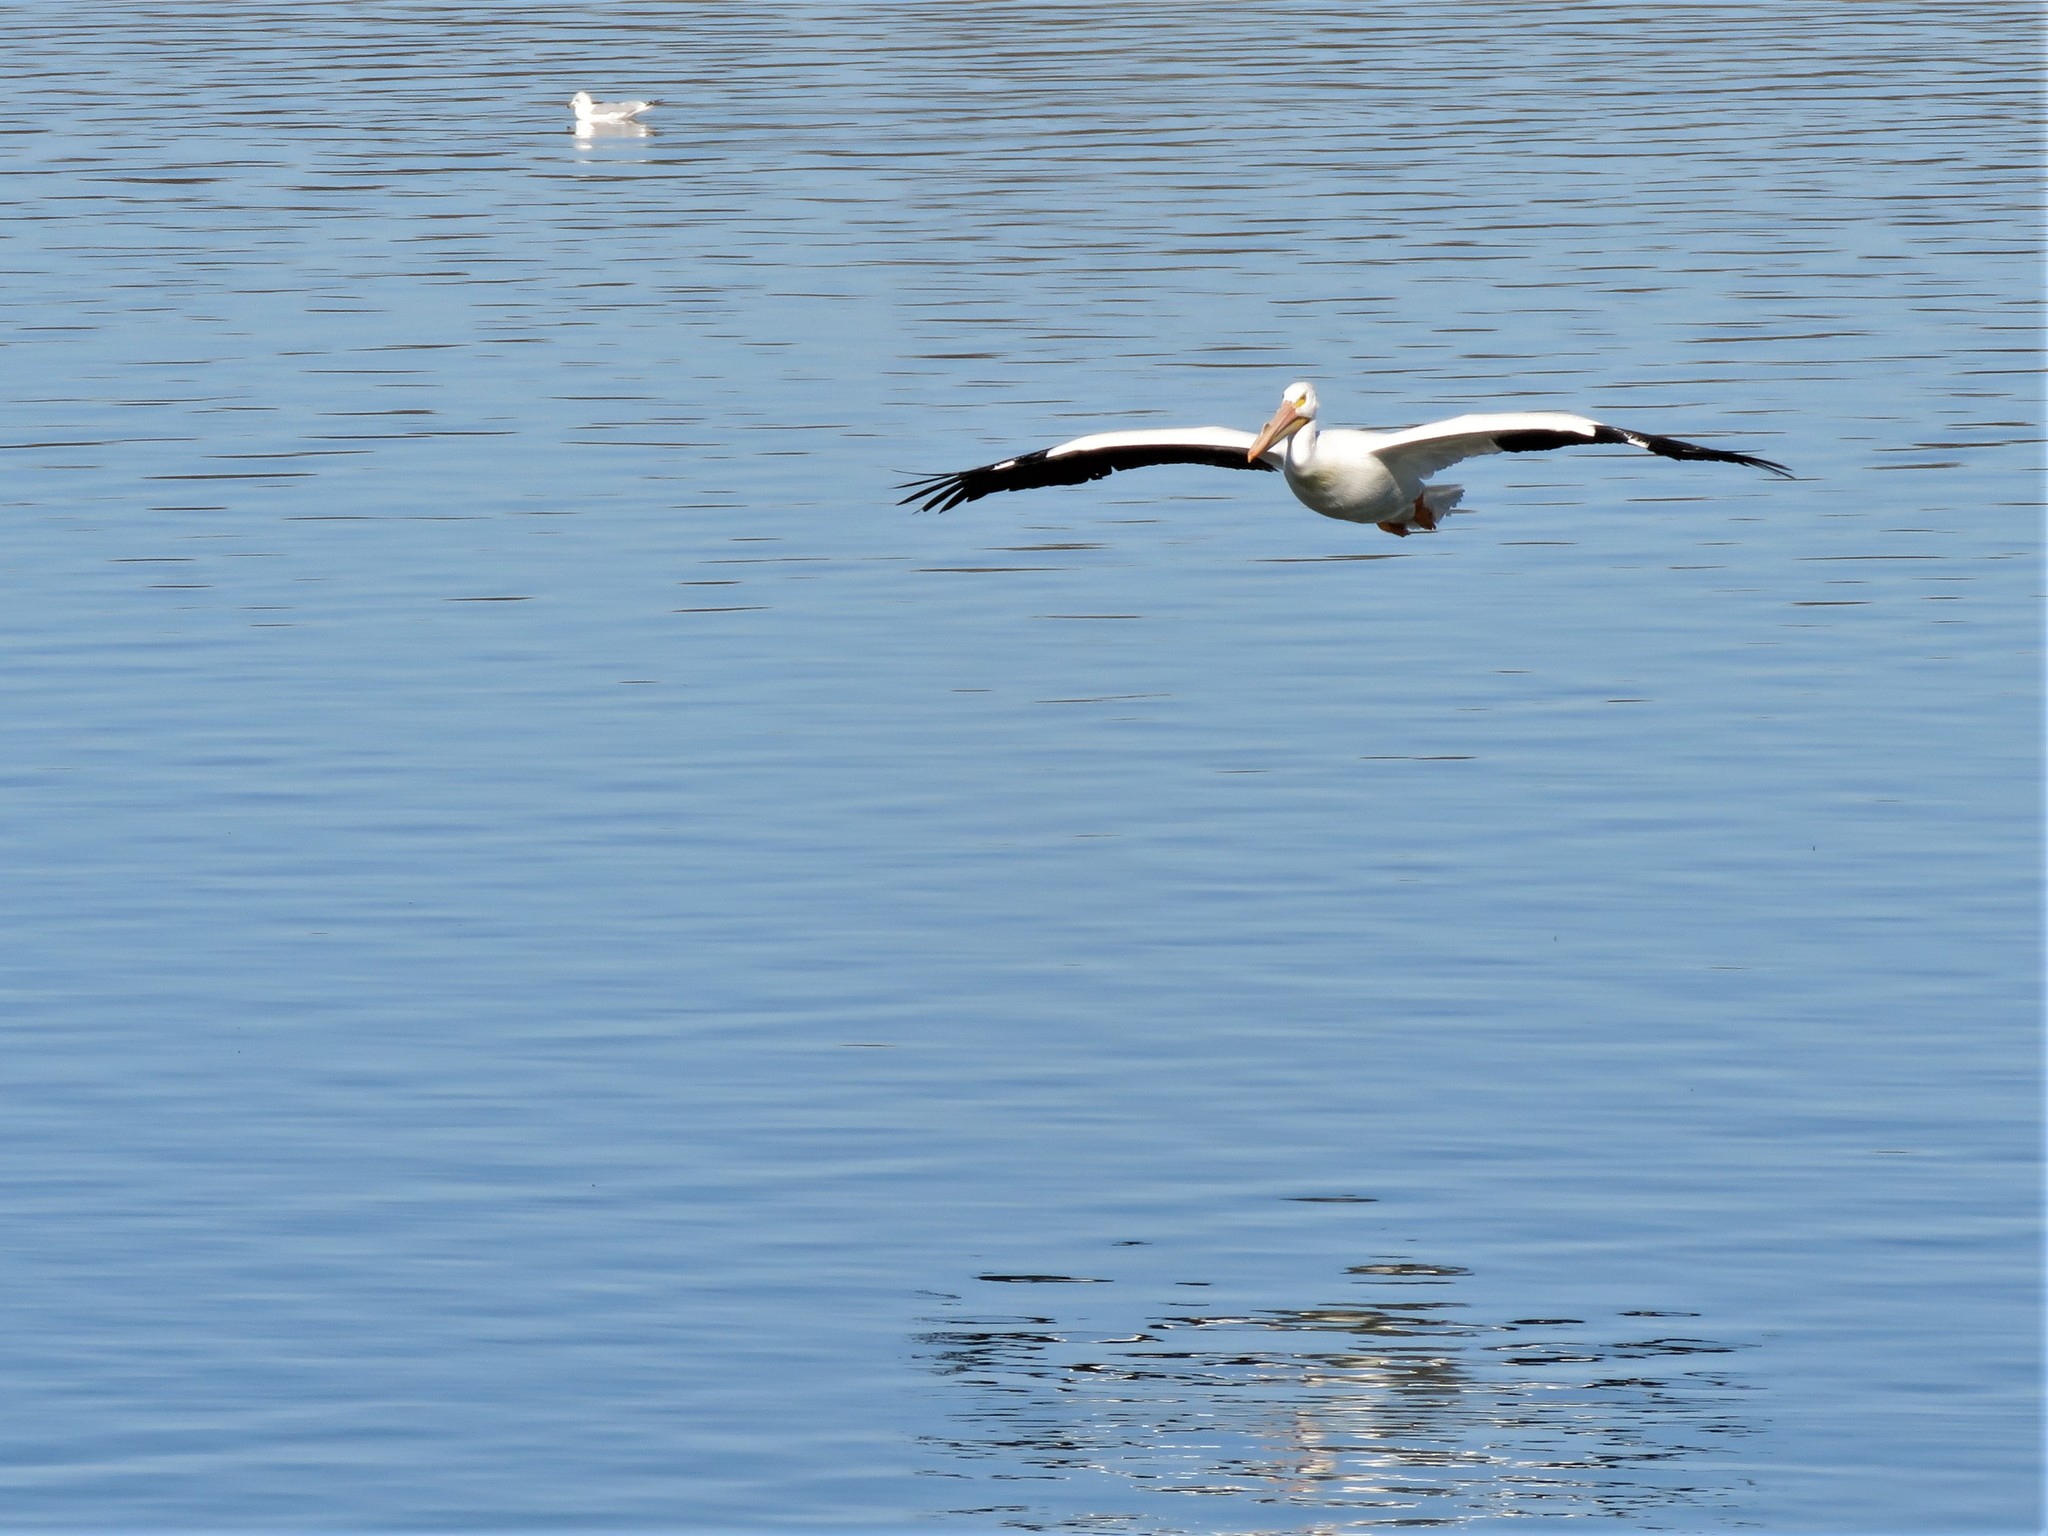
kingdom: Animalia
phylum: Chordata
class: Aves
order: Pelecaniformes
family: Pelecanidae
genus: Pelecanus
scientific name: Pelecanus erythrorhynchos
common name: American white pelican
